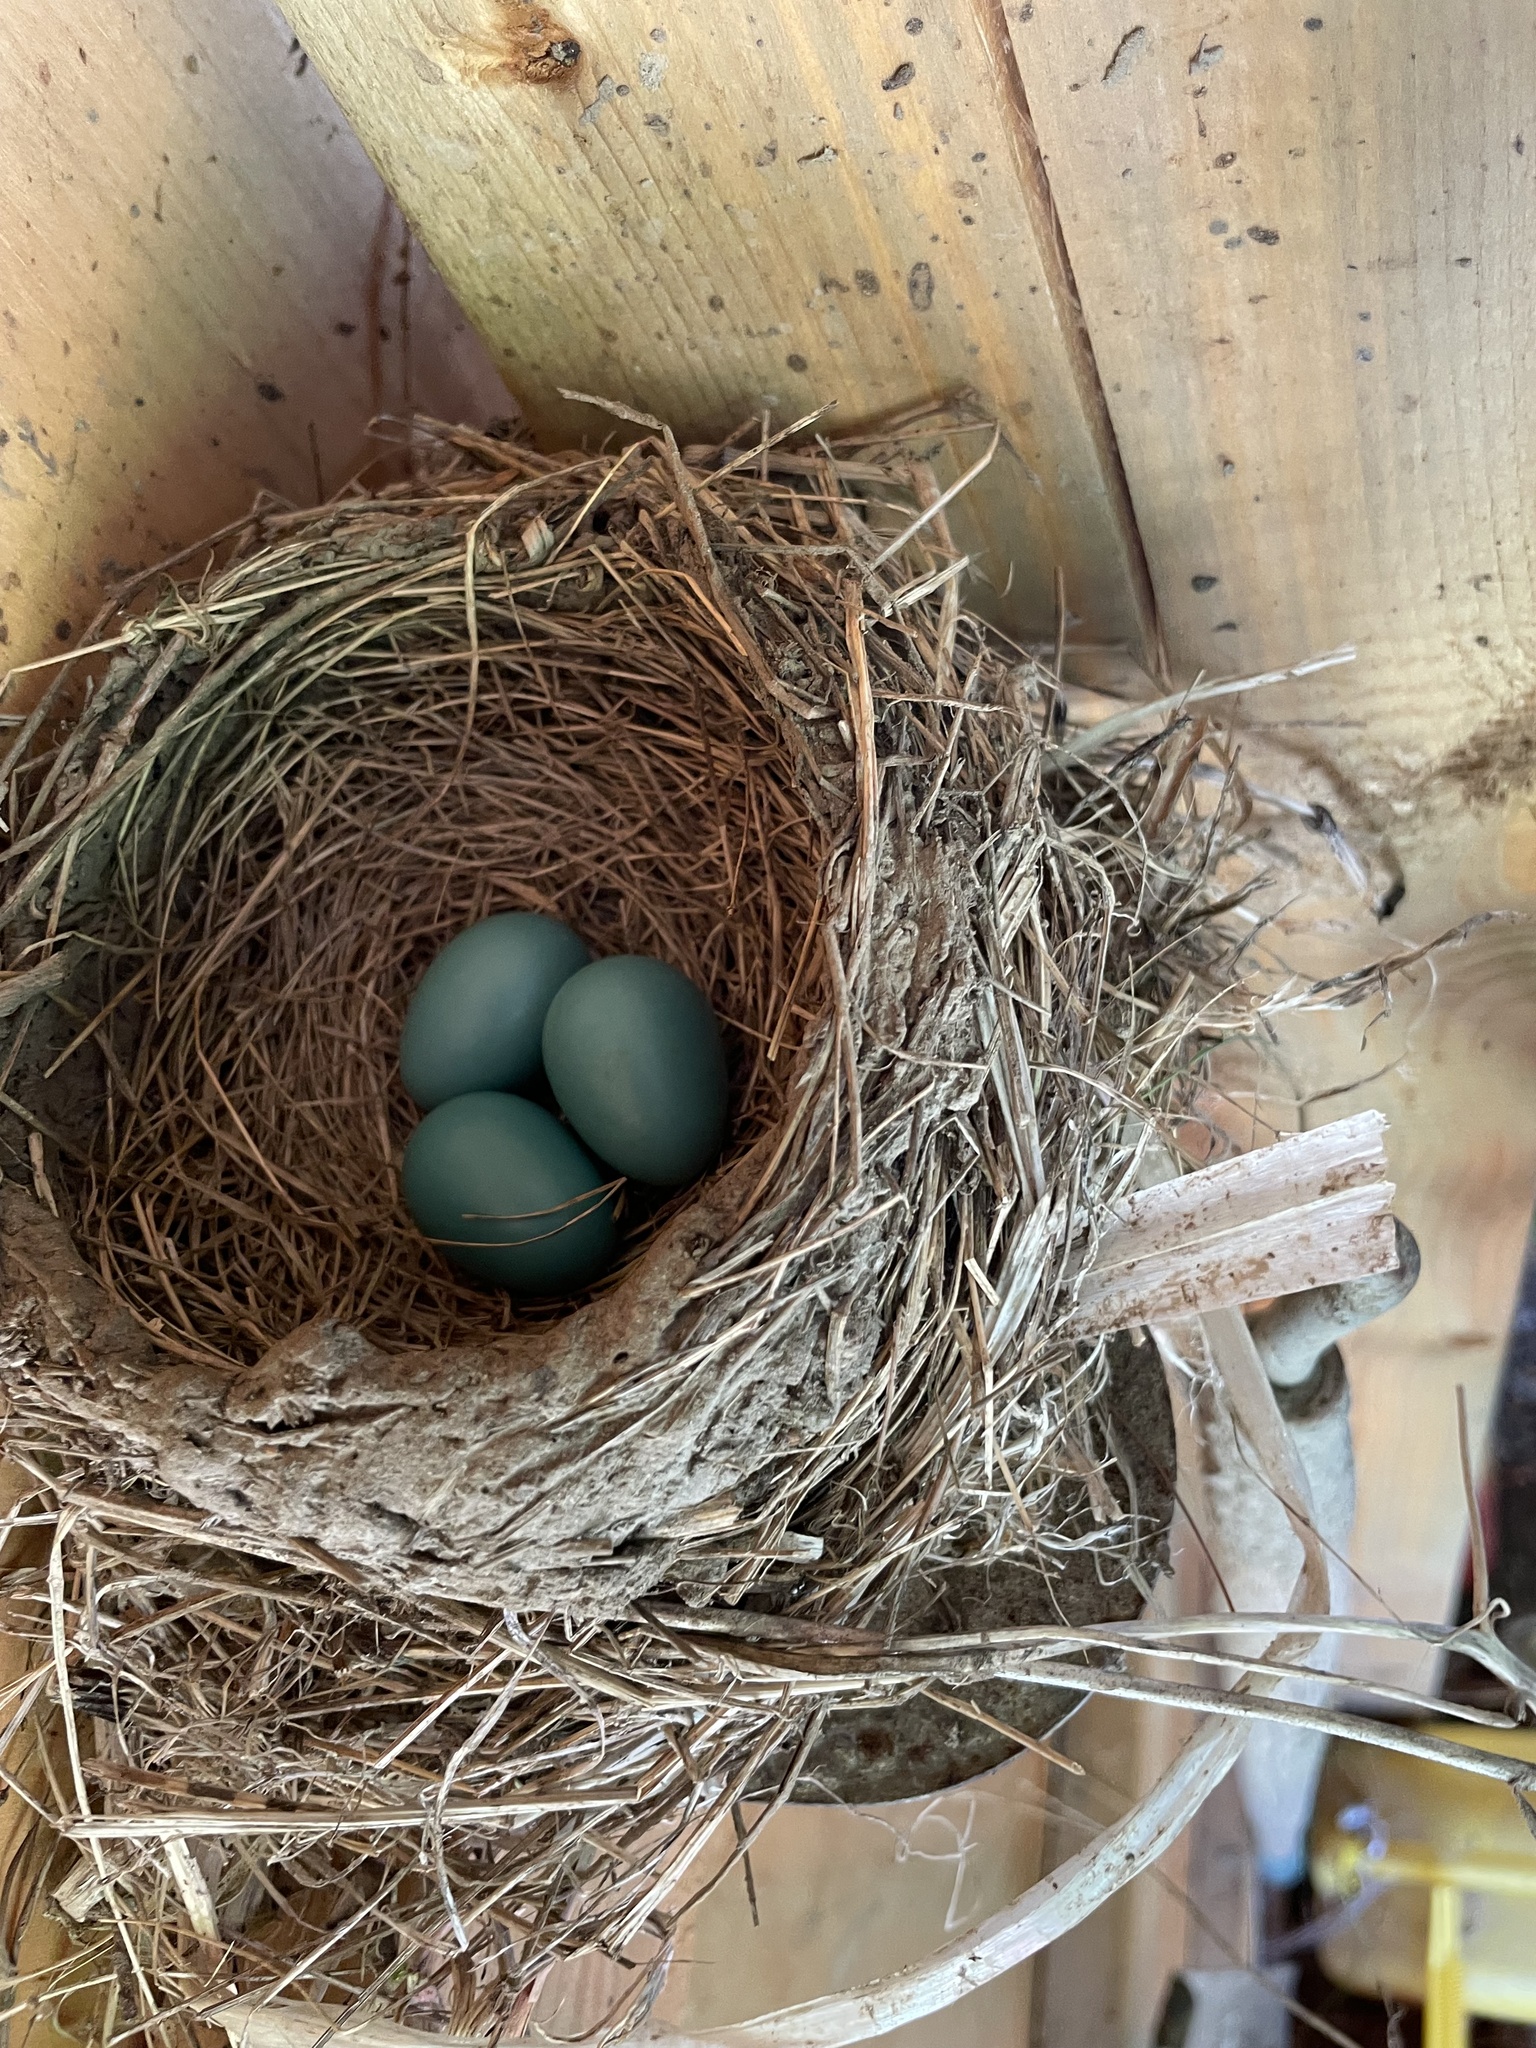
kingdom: Animalia
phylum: Chordata
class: Aves
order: Passeriformes
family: Turdidae
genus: Turdus
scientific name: Turdus migratorius
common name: American robin
